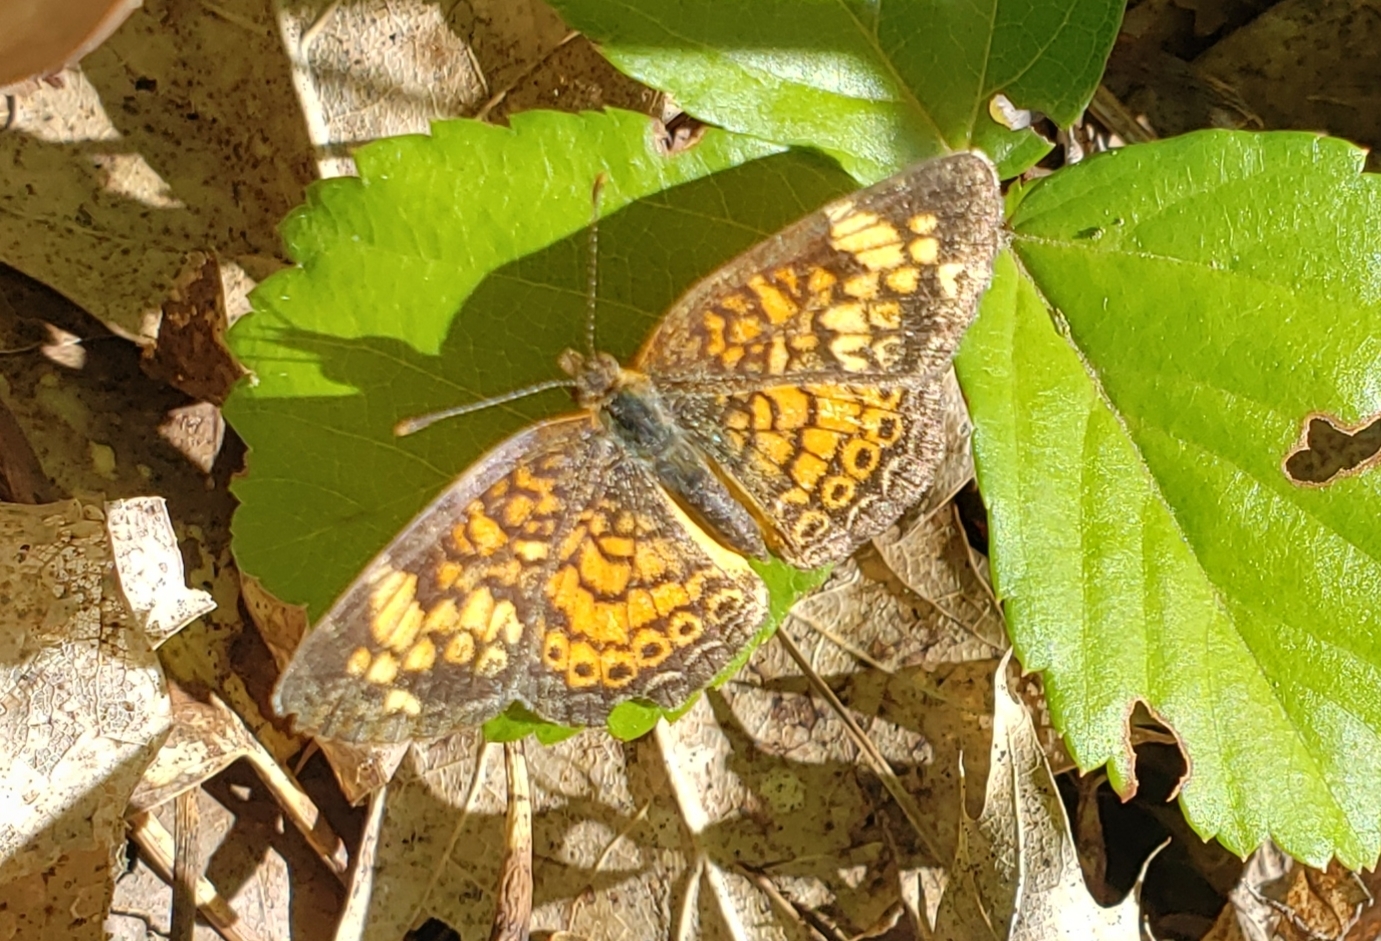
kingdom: Animalia
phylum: Arthropoda
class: Insecta
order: Lepidoptera
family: Nymphalidae
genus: Phyciodes
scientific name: Phyciodes tharos
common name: Pearl crescent
